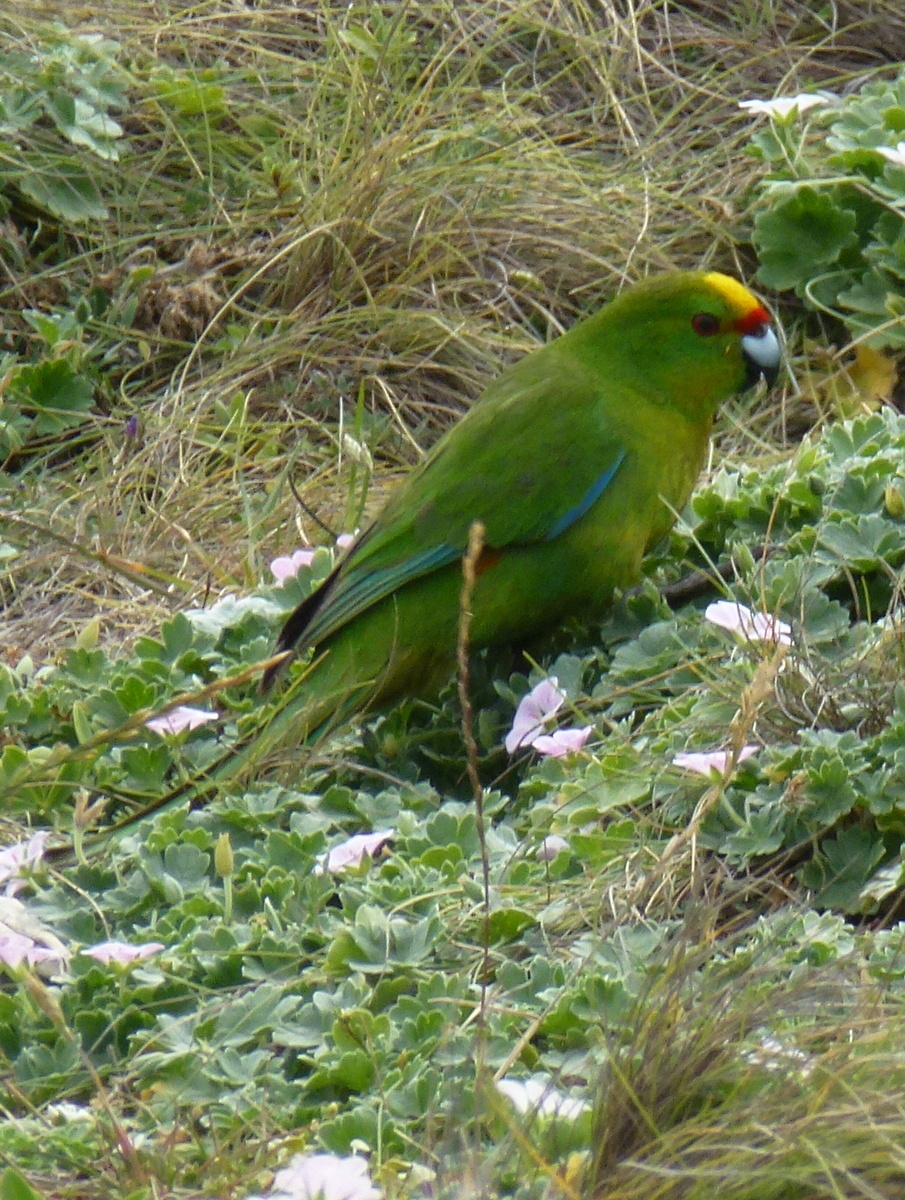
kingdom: Animalia
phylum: Chordata
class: Aves
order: Psittaciformes
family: Psittacidae
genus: Cyanoramphus
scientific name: Cyanoramphus forbesi
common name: Chatham parakeet
